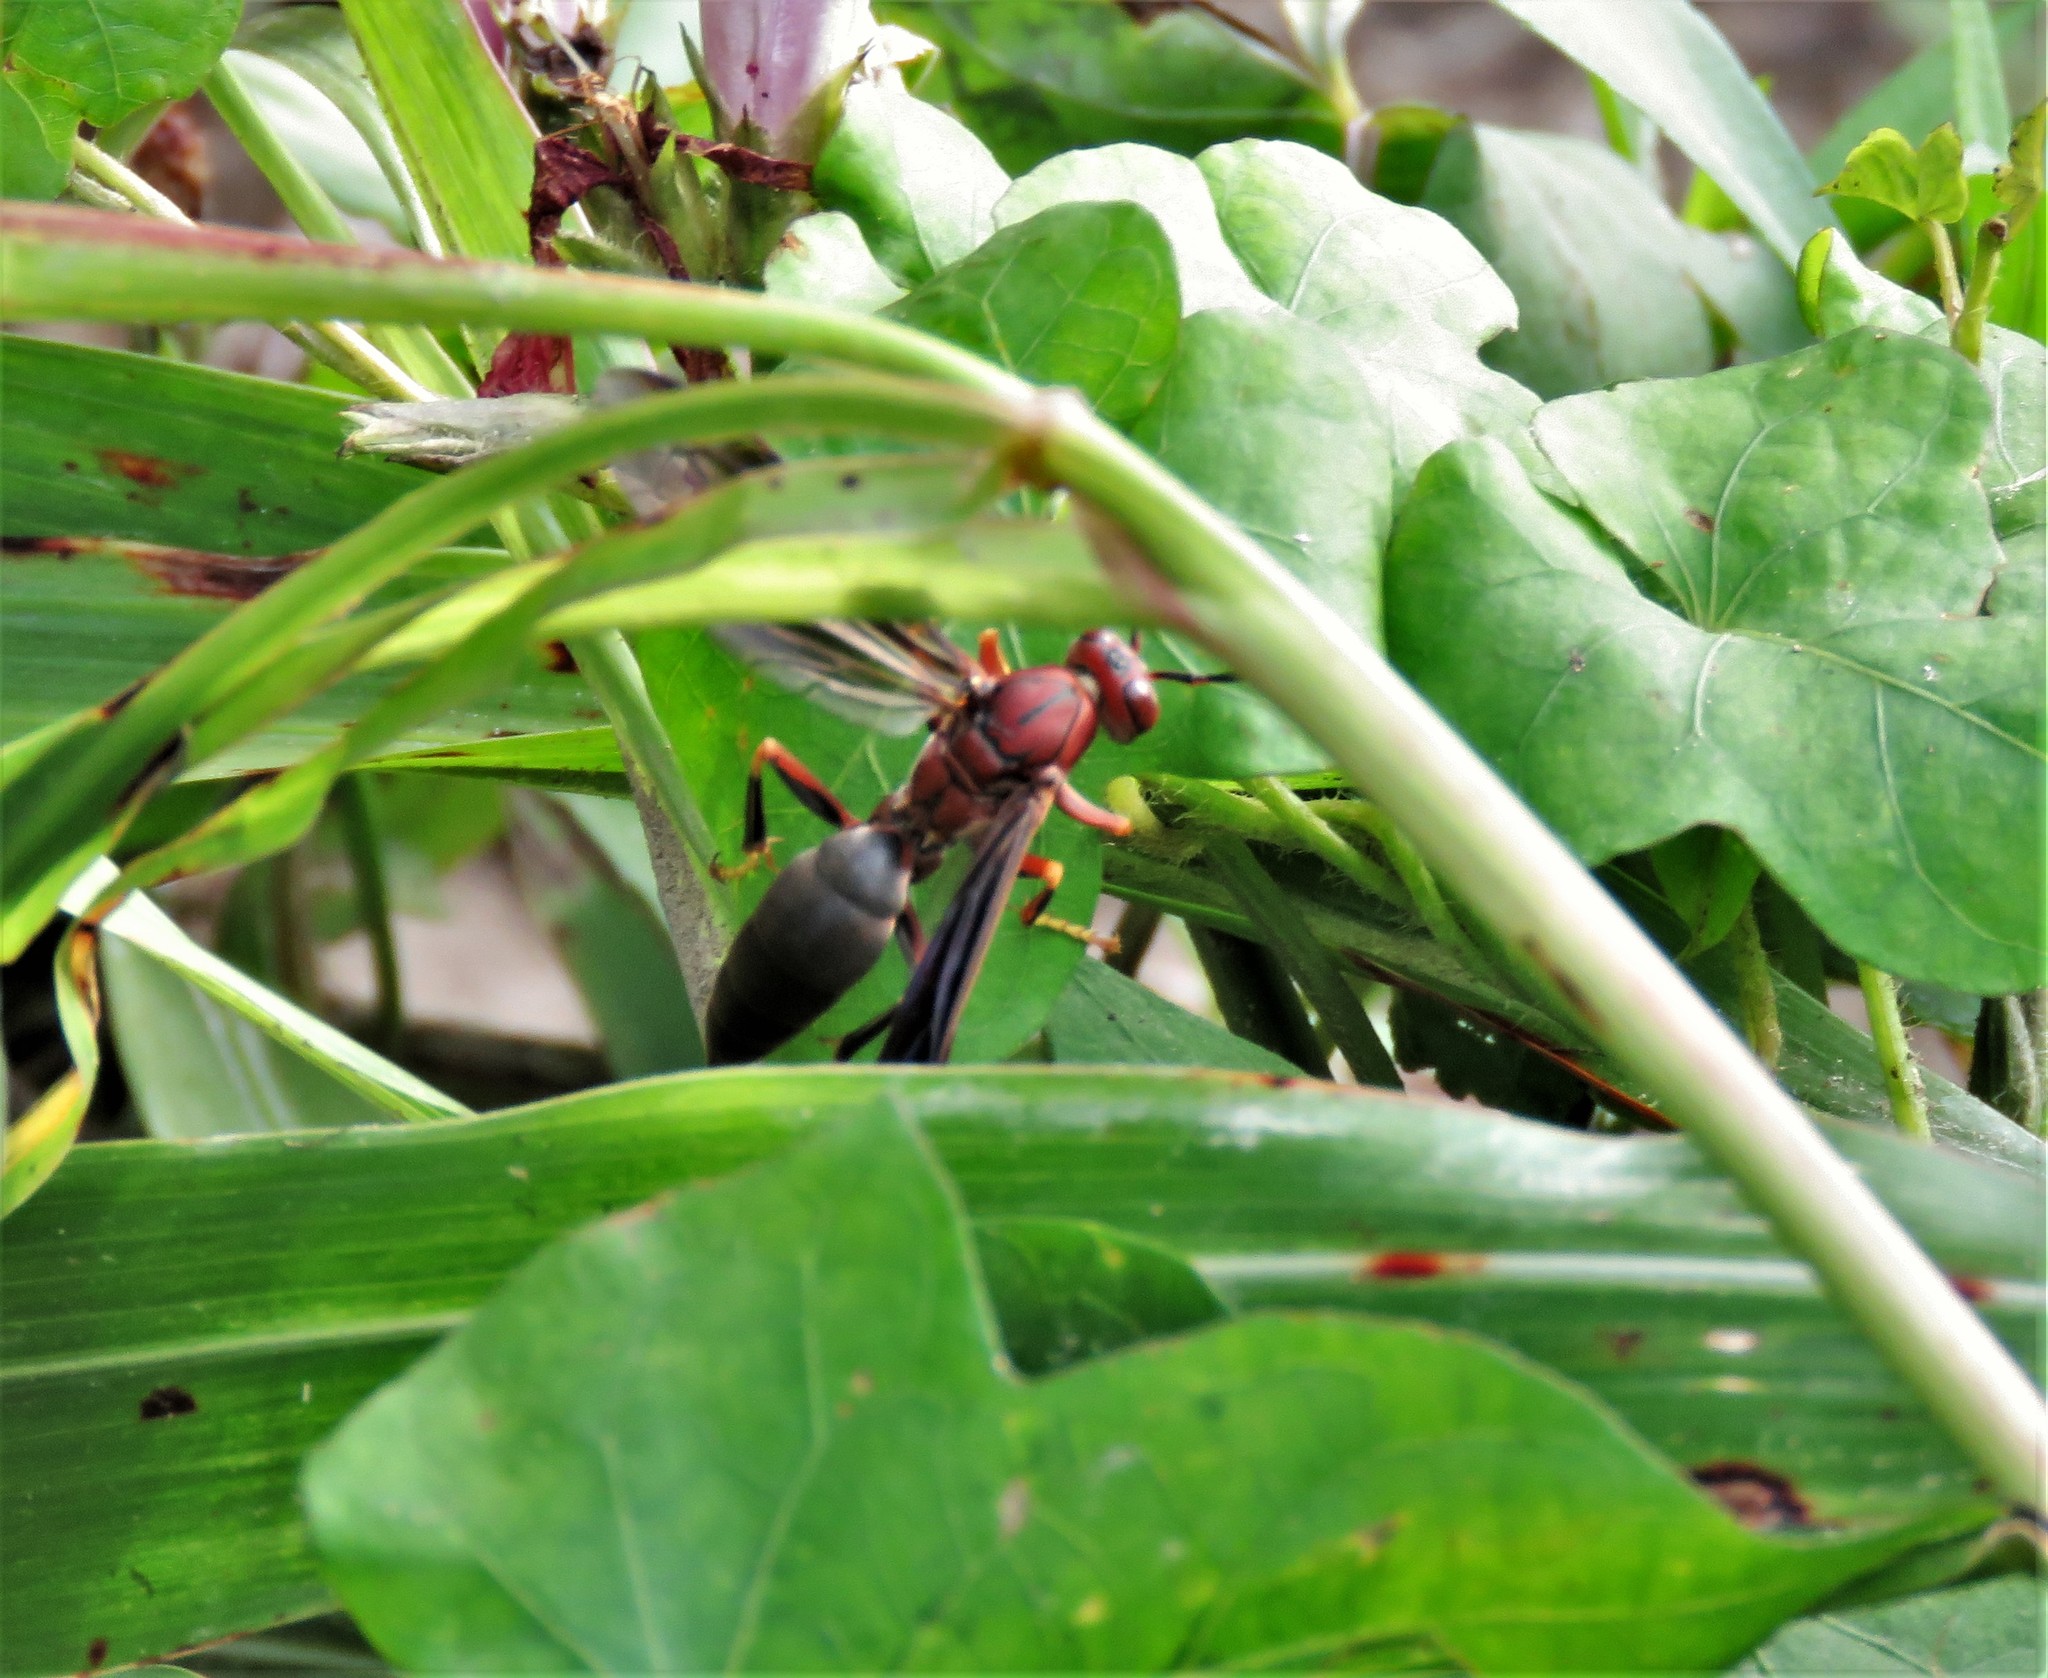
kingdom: Animalia
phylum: Arthropoda
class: Insecta
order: Hymenoptera
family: Eumenidae
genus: Polistes
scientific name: Polistes metricus
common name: Metric paper wasp
